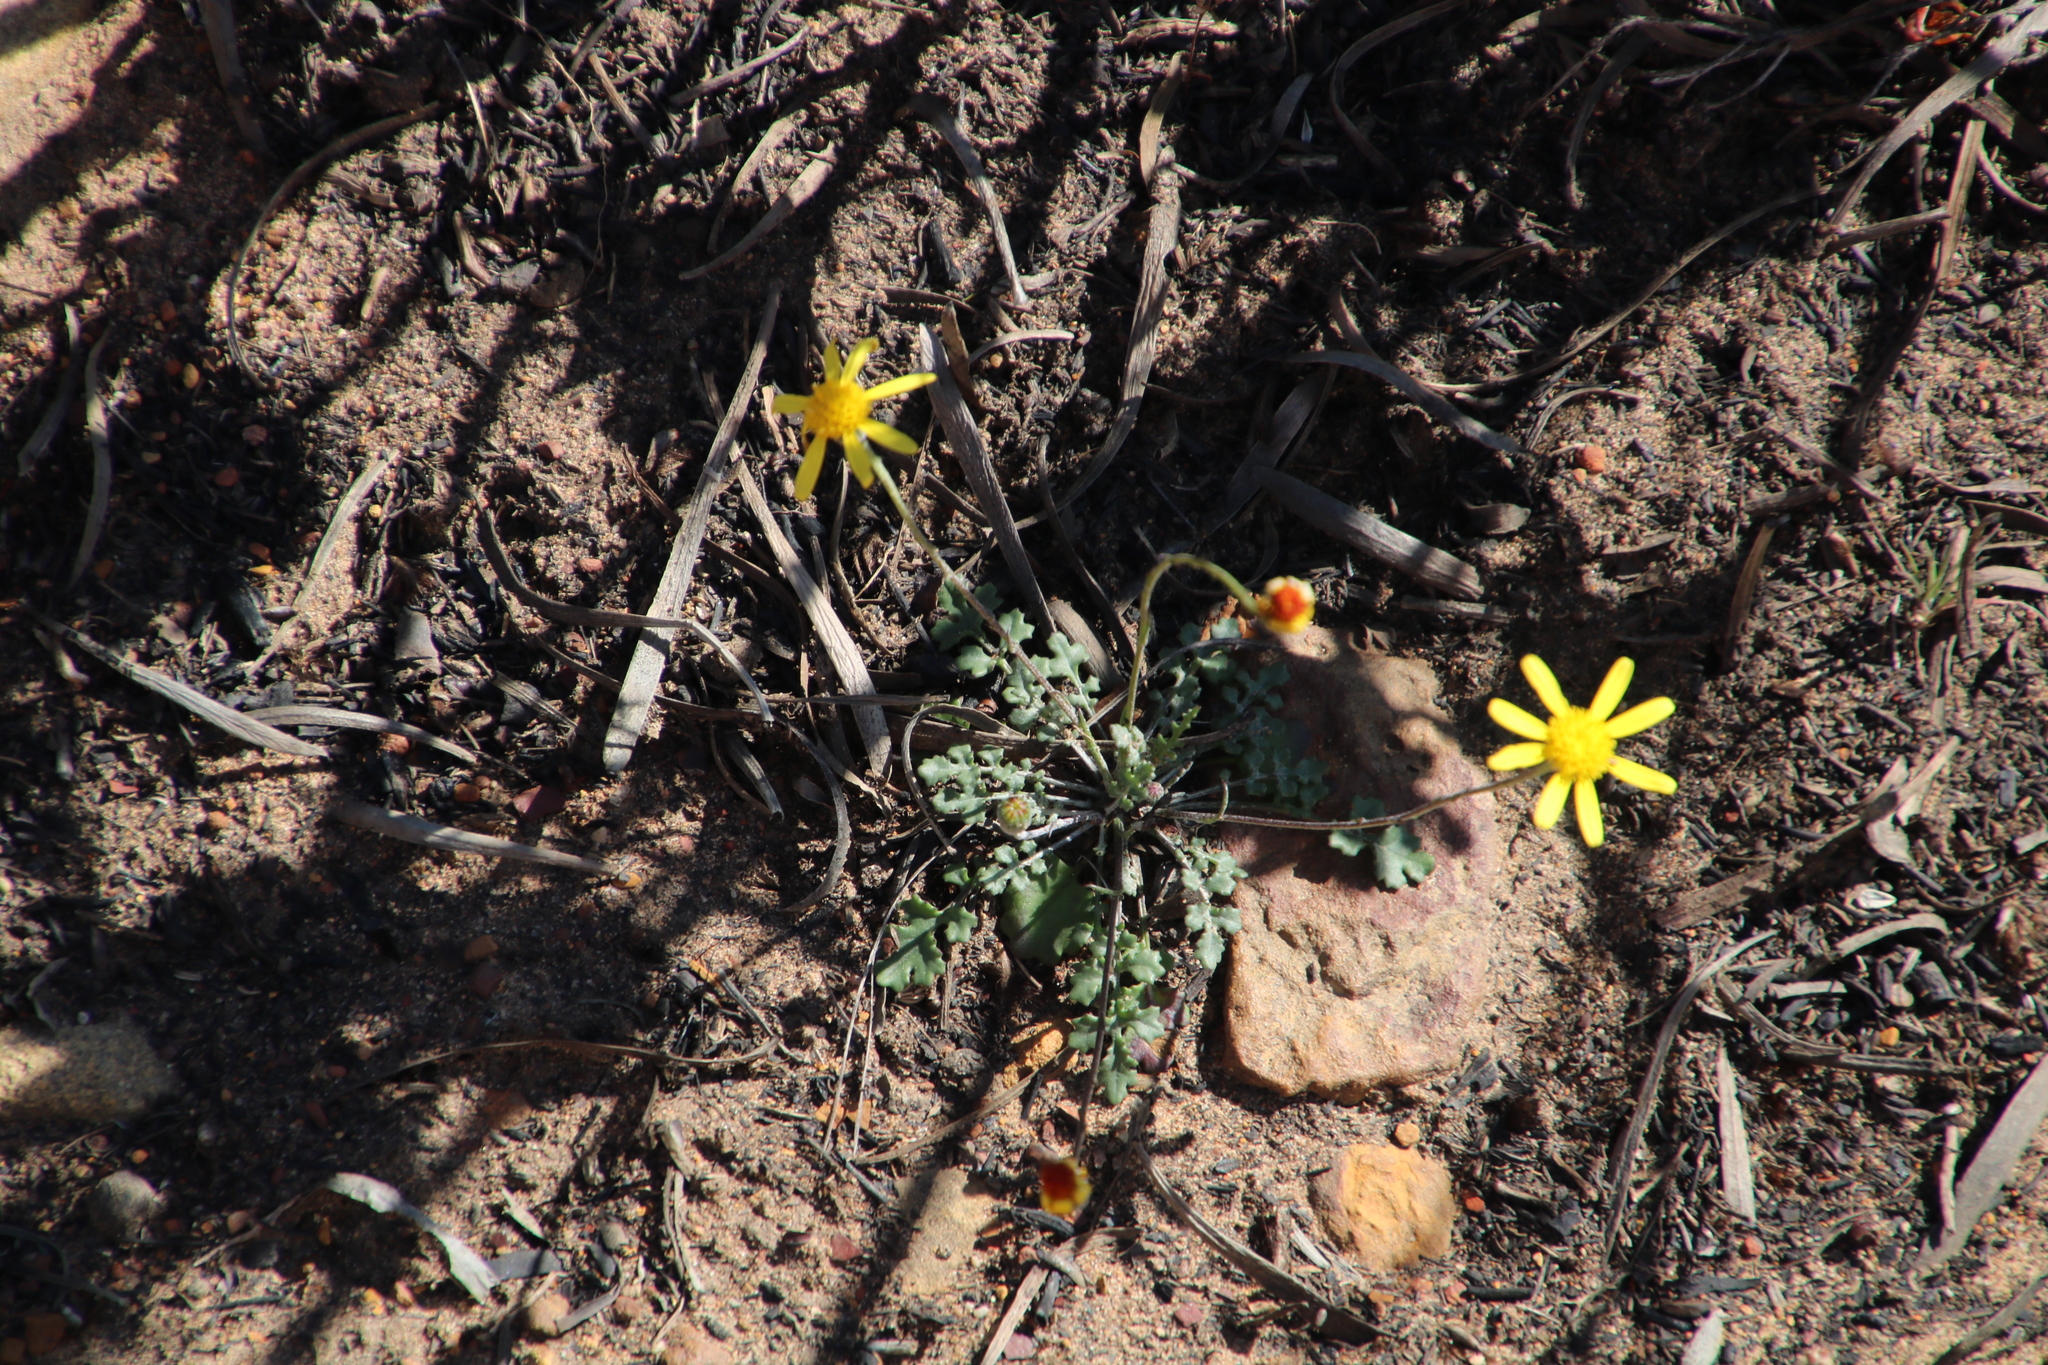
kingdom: Plantae
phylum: Tracheophyta
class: Magnoliopsida
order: Asterales
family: Asteraceae
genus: Bolandia
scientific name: Bolandia pedunculosa
